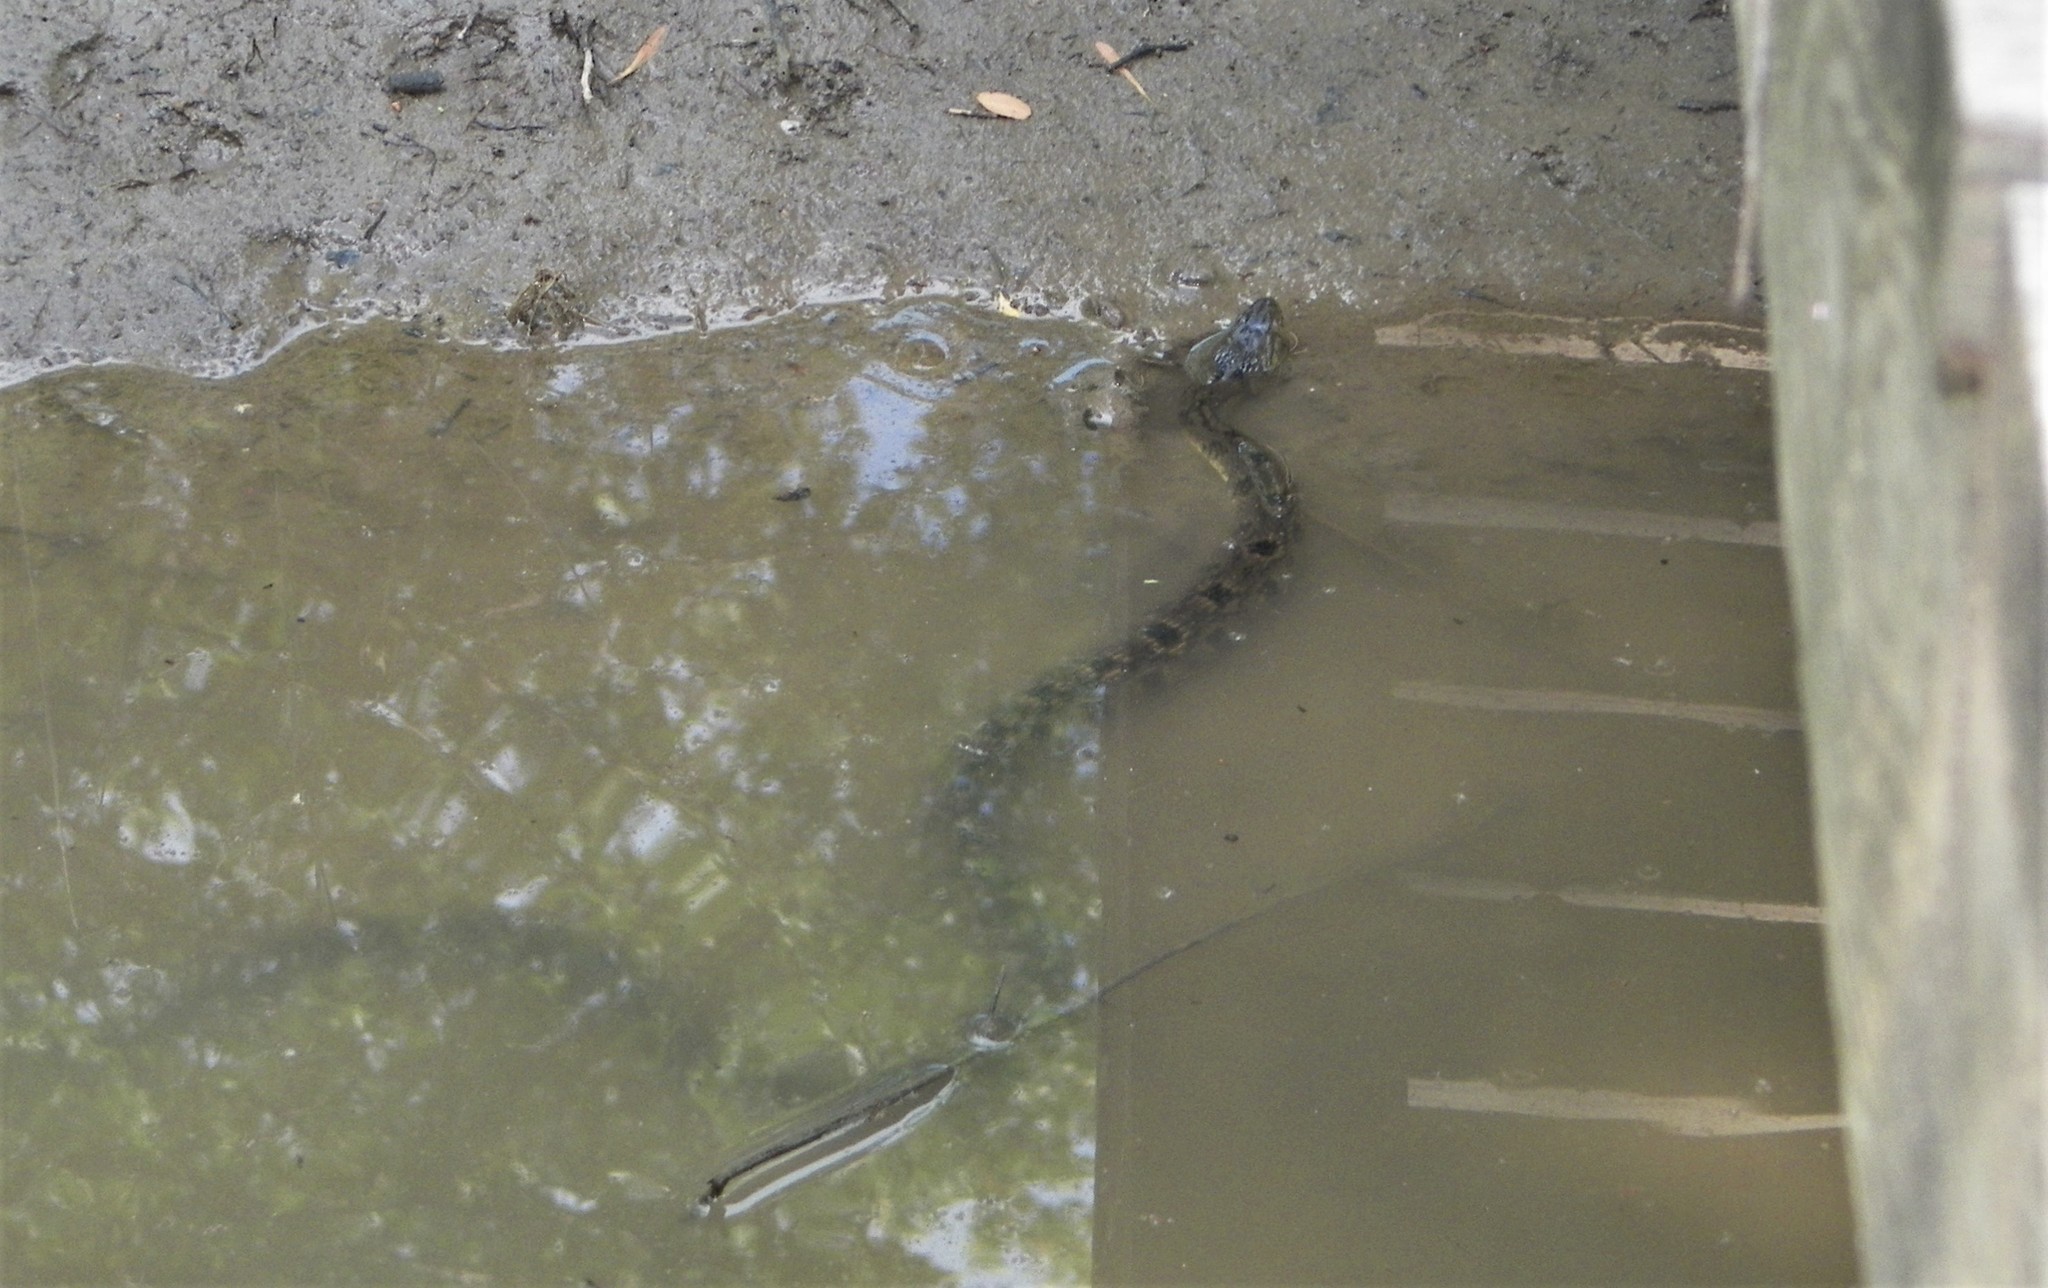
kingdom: Animalia
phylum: Chordata
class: Squamata
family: Colubridae
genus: Nerodia
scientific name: Nerodia rhombifer
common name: Diamondback water snake
